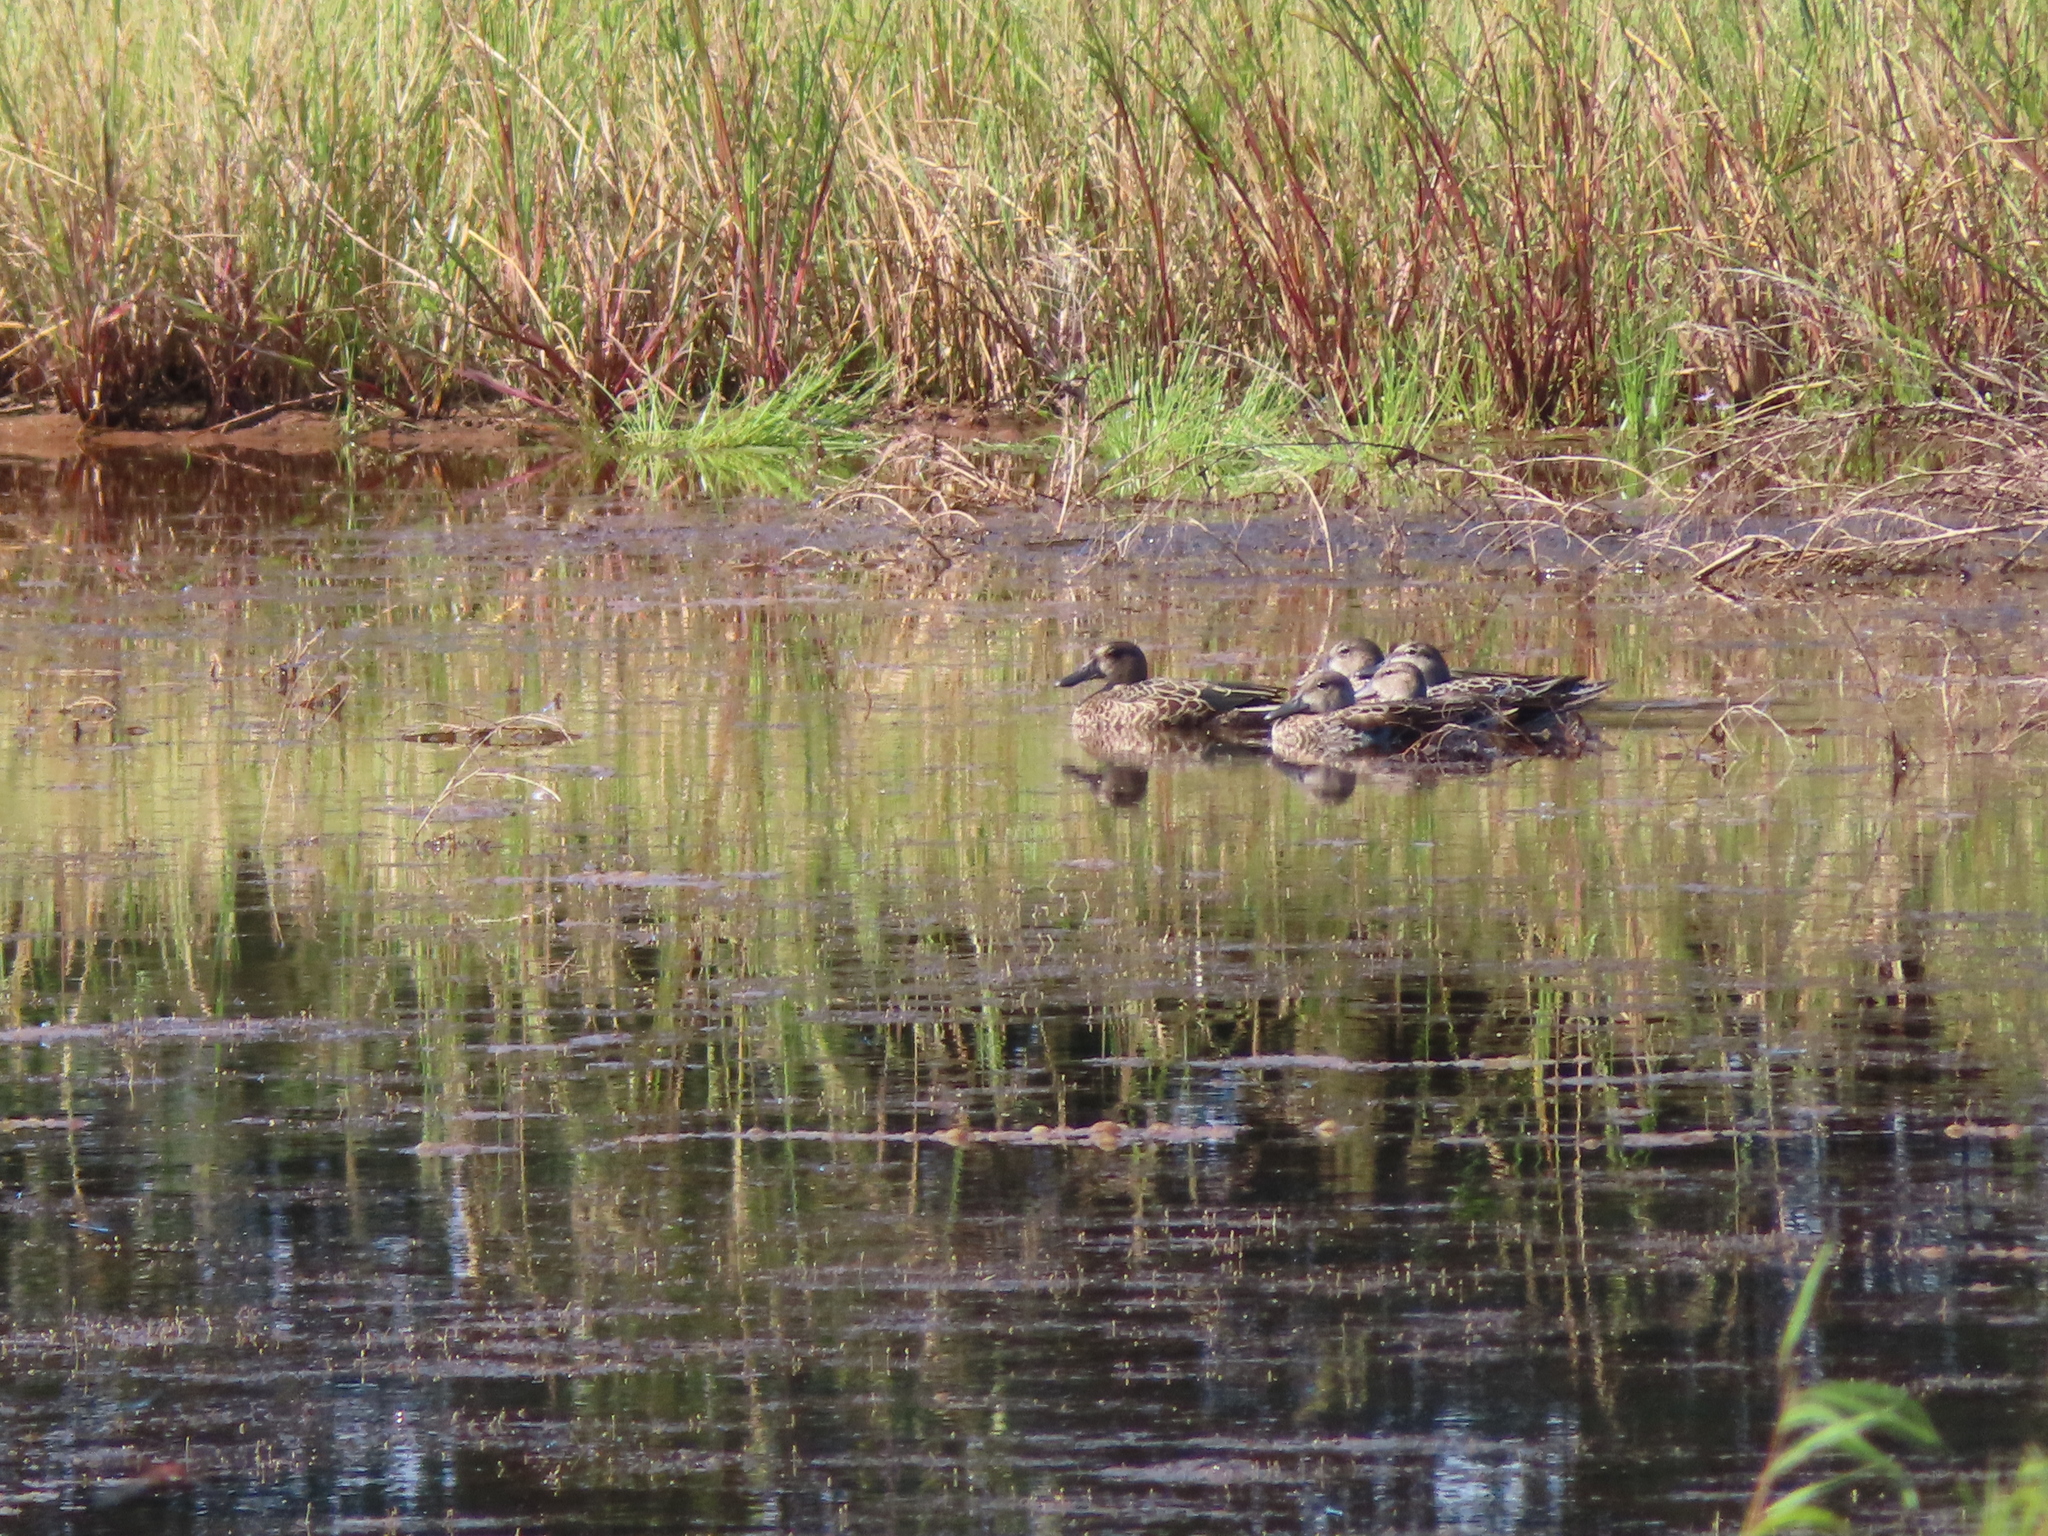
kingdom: Animalia
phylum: Chordata
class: Aves
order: Anseriformes
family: Anatidae
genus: Spatula
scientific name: Spatula discors
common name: Blue-winged teal
